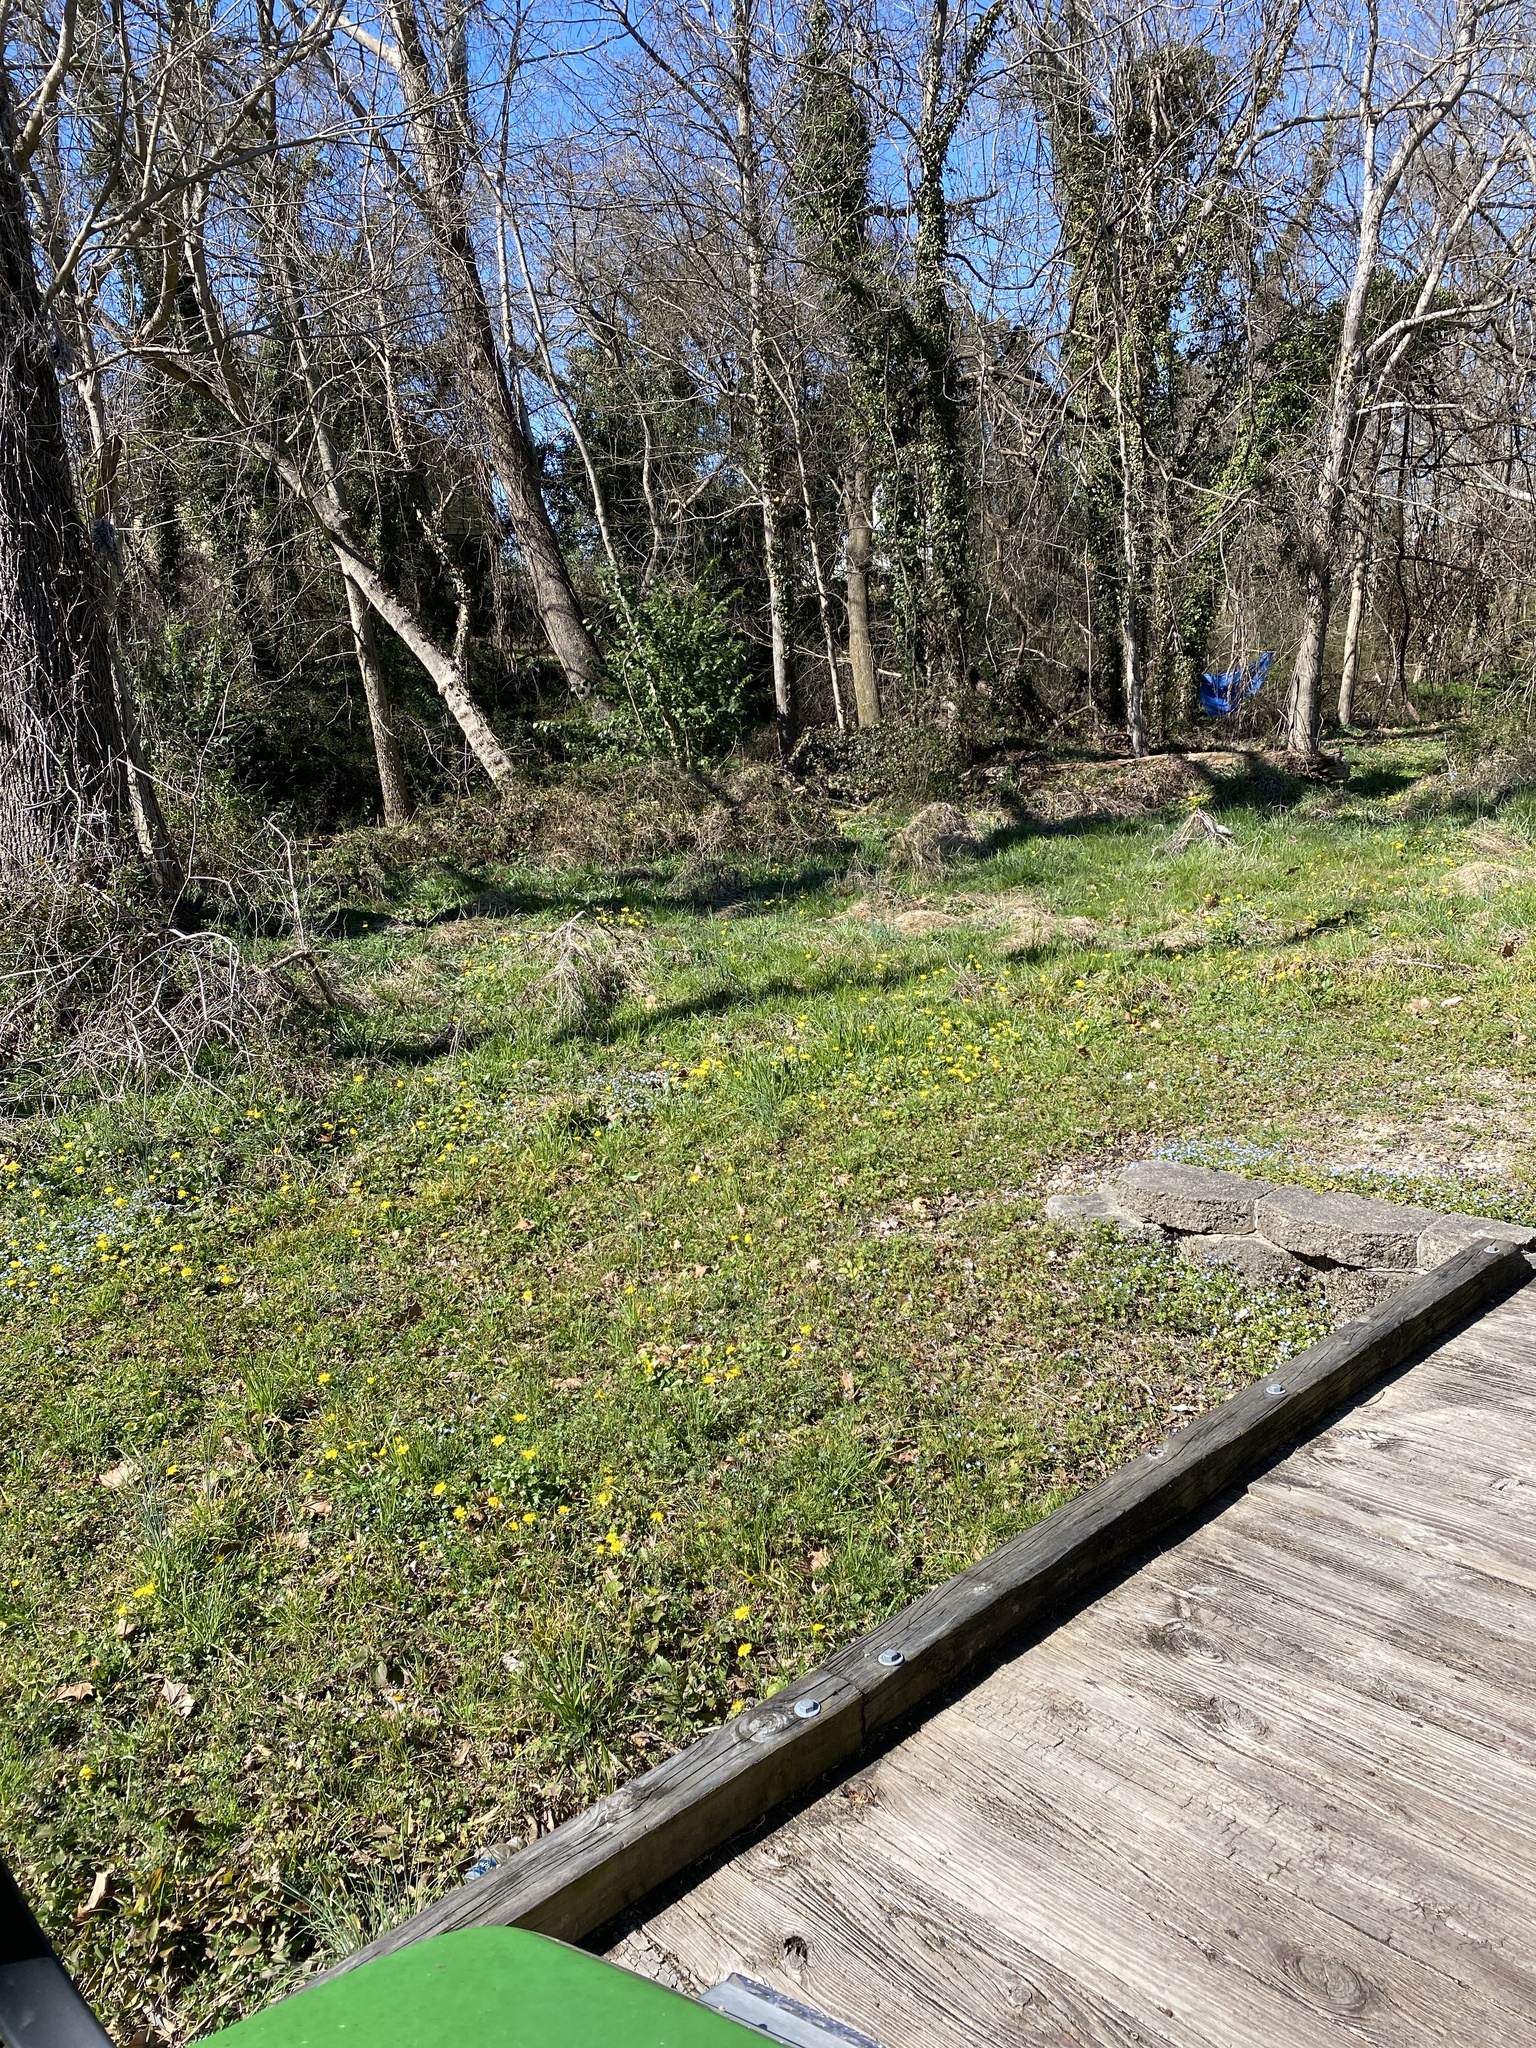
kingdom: Plantae
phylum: Tracheophyta
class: Magnoliopsida
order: Ranunculales
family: Ranunculaceae
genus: Ficaria
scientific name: Ficaria verna
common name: Lesser celandine
